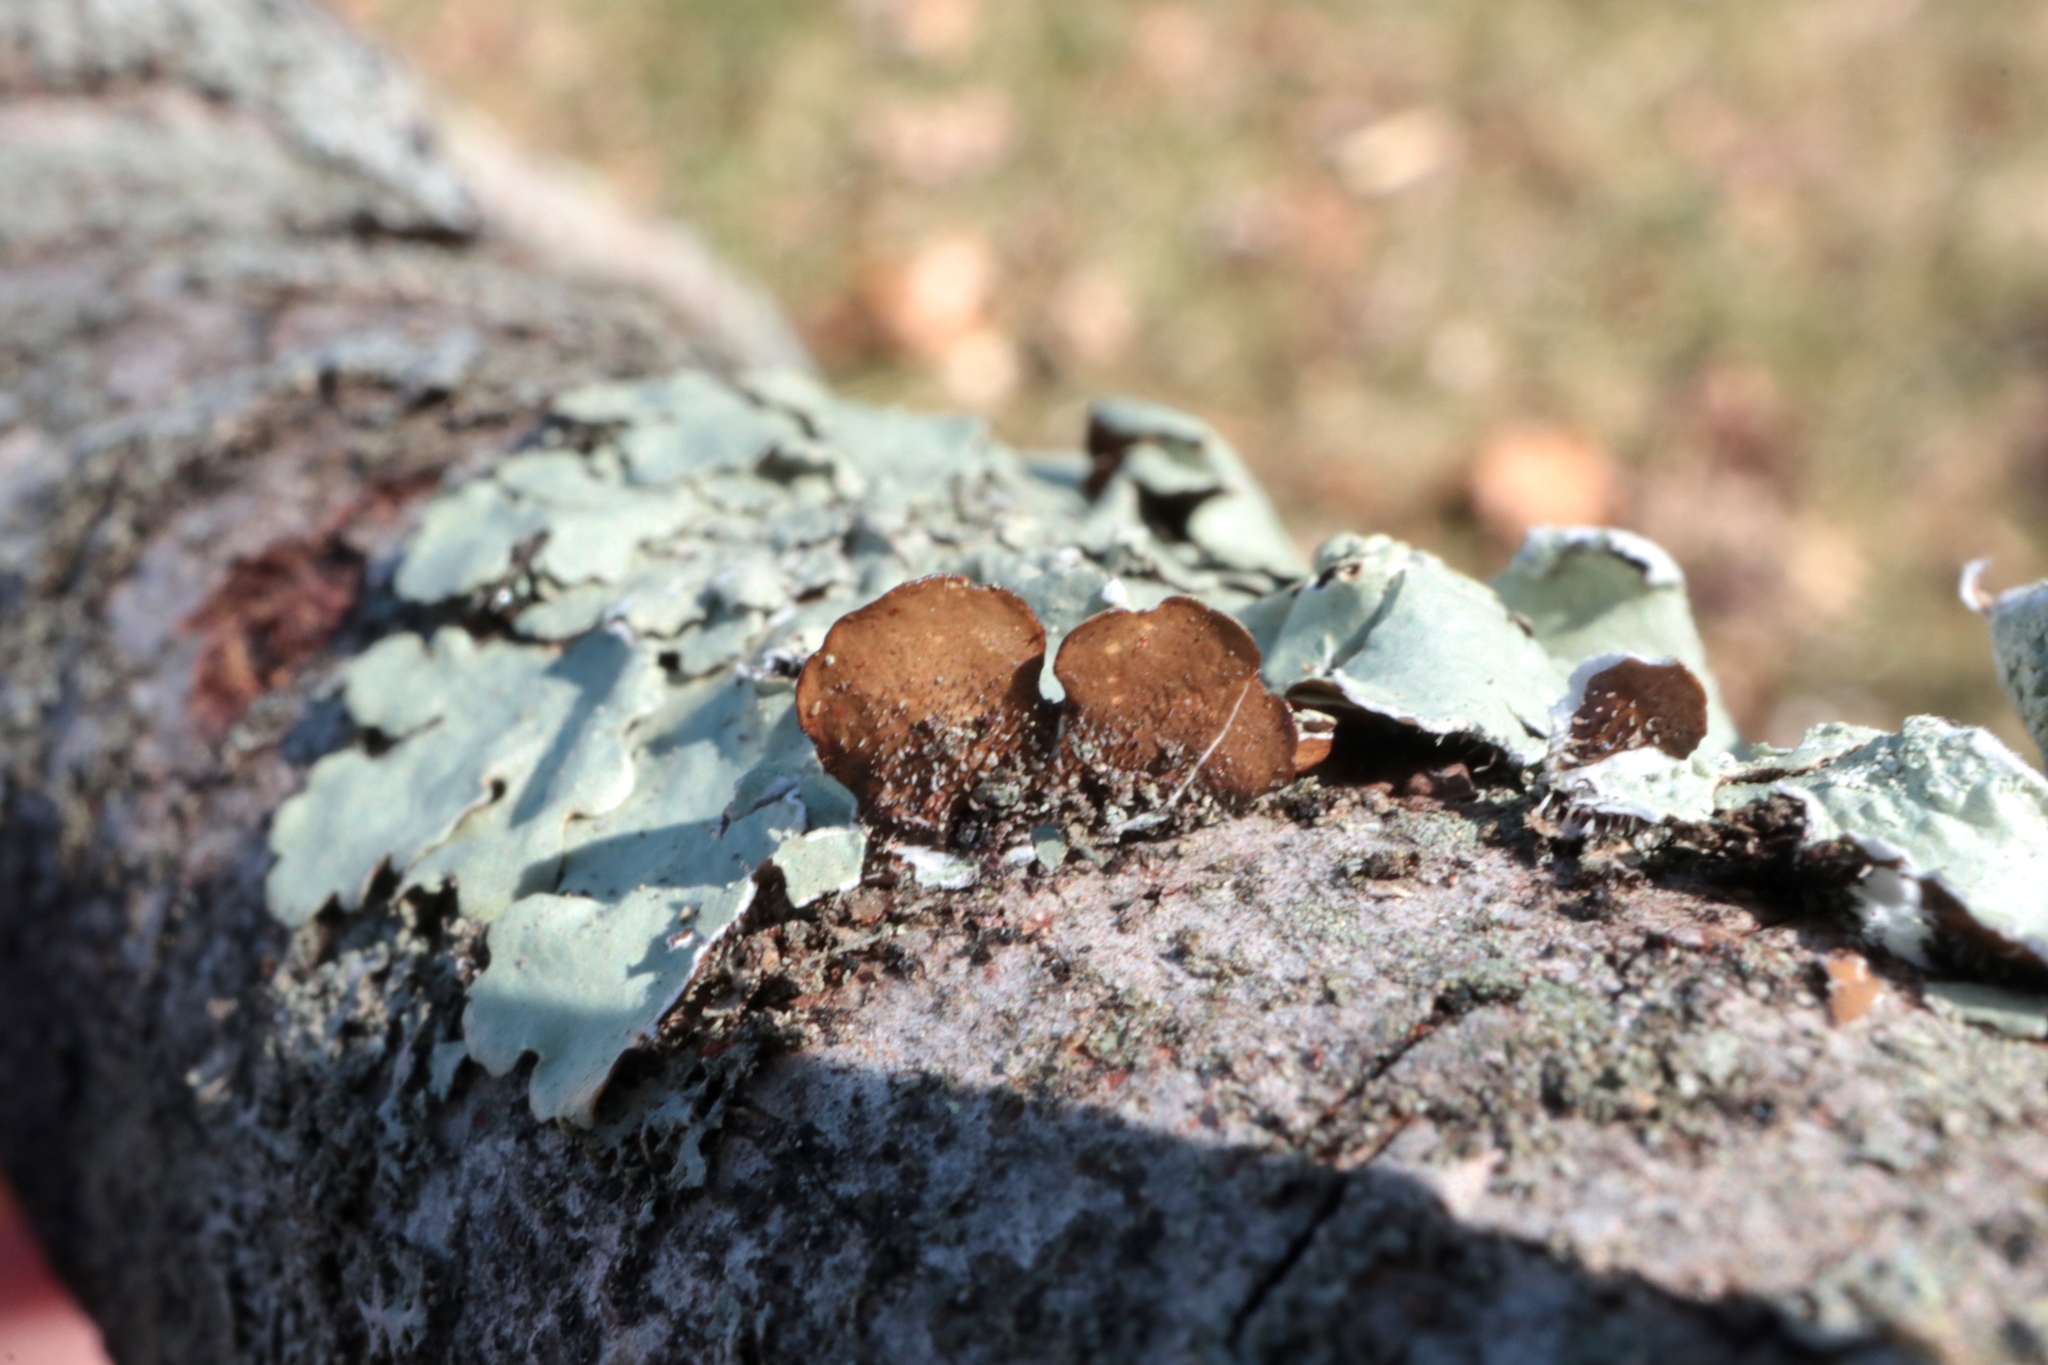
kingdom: Fungi
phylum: Ascomycota
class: Lecanoromycetes
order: Lecanorales
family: Parmeliaceae
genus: Flavoparmelia
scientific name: Flavoparmelia caperata
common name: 40-mile per hour lichen
